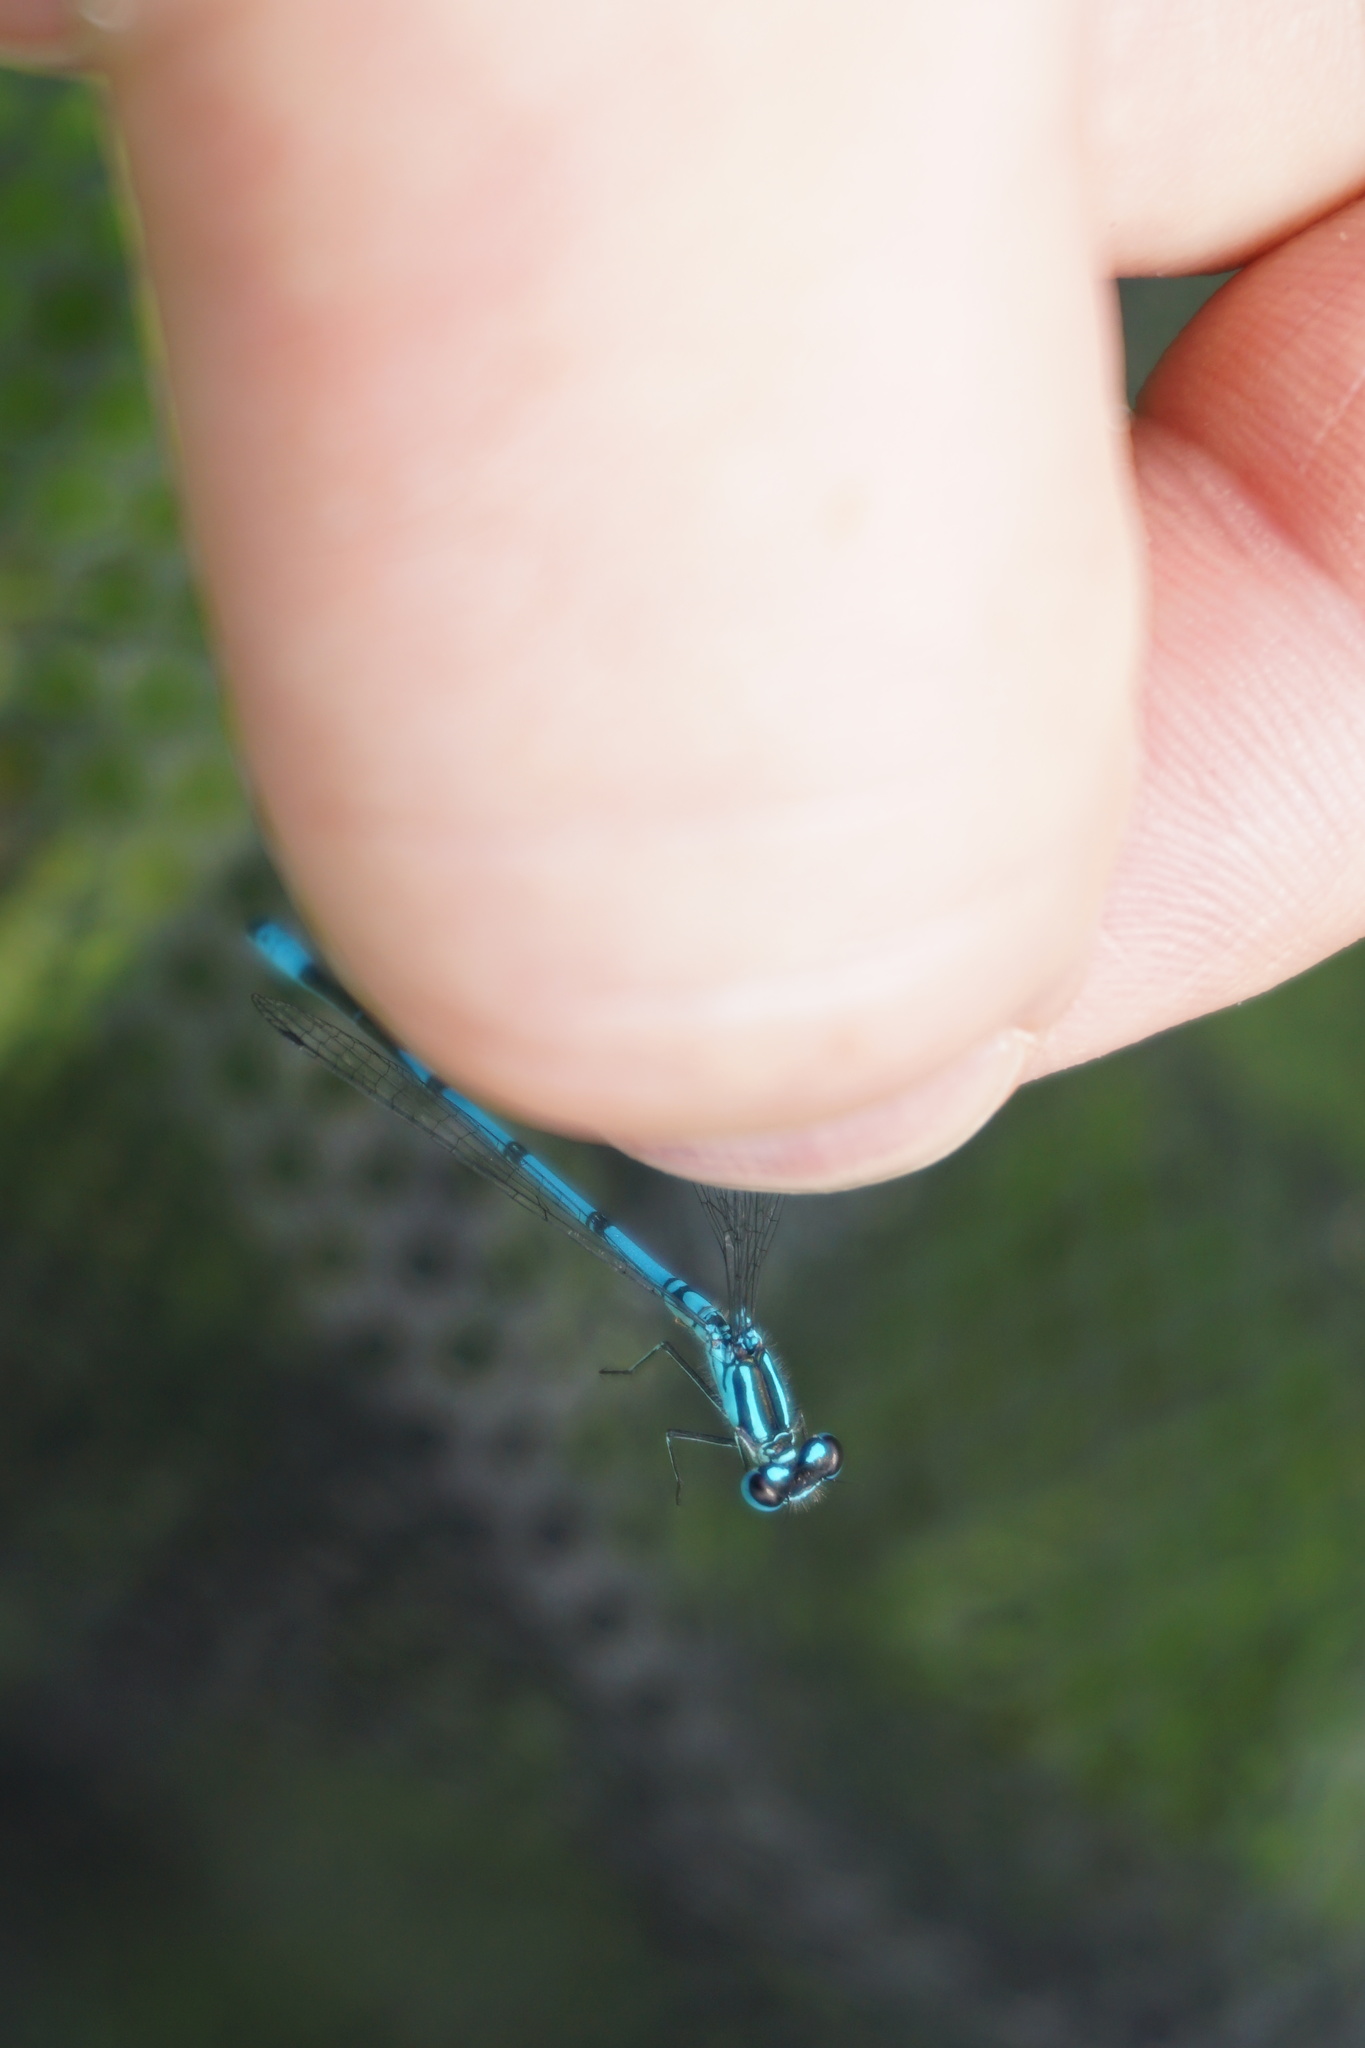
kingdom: Animalia
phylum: Arthropoda
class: Insecta
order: Odonata
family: Coenagrionidae
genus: Coenagrion
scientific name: Coenagrion puella
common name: Azure damselfly
